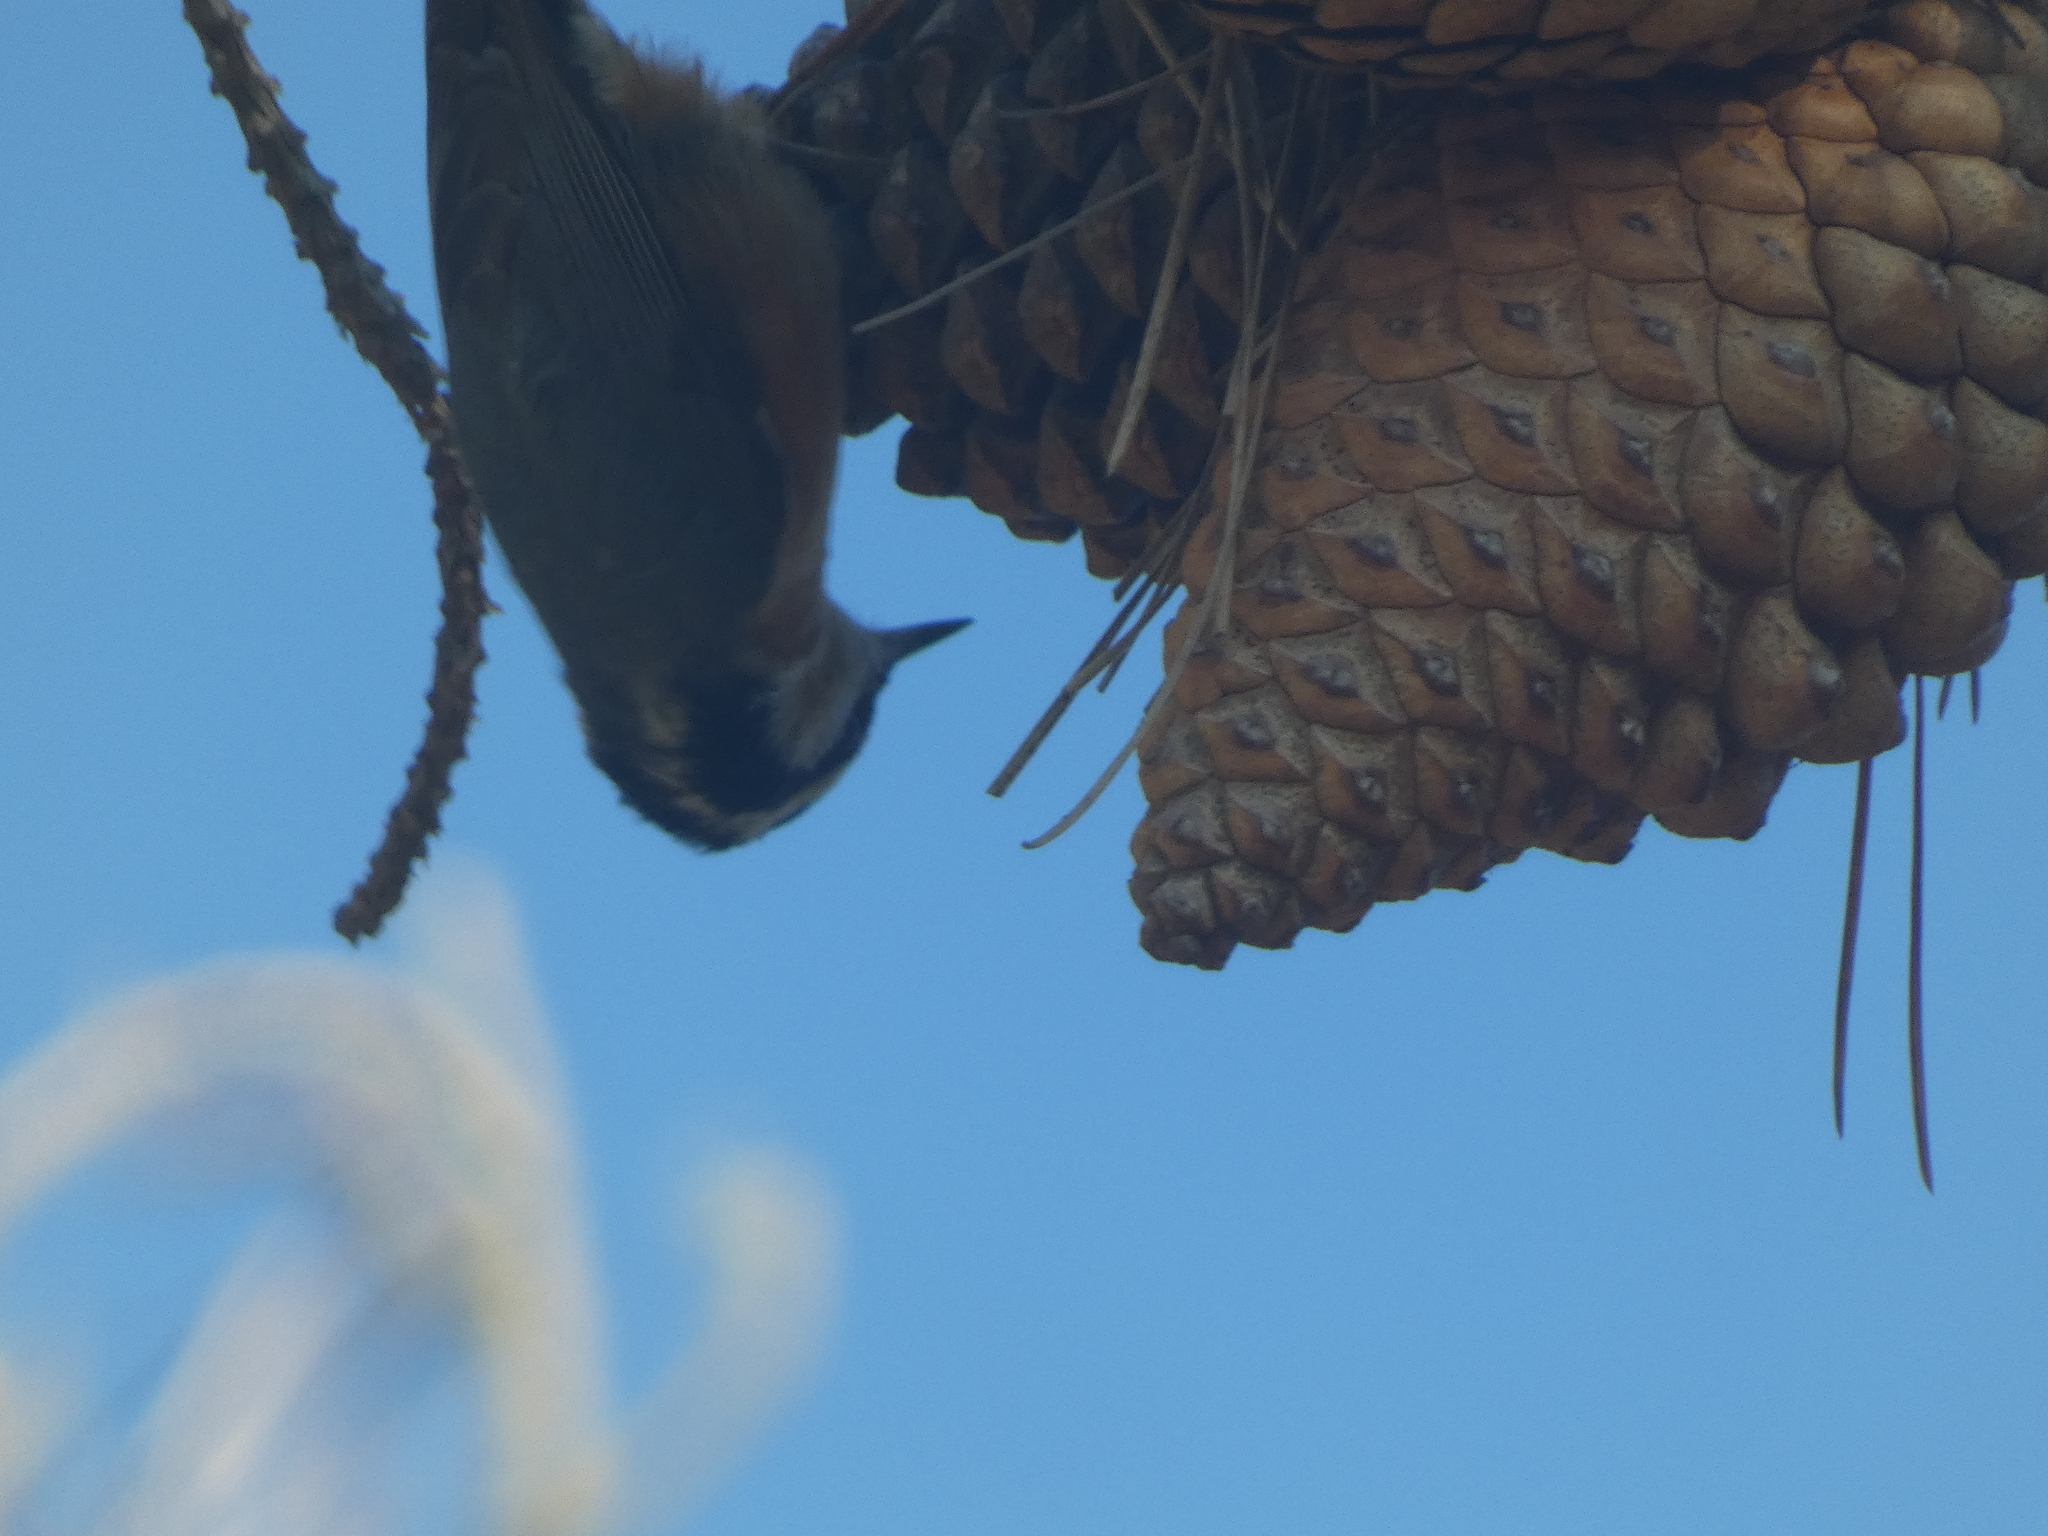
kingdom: Animalia
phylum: Chordata
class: Aves
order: Passeriformes
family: Sittidae
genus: Sitta
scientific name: Sitta canadensis
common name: Red-breasted nuthatch
